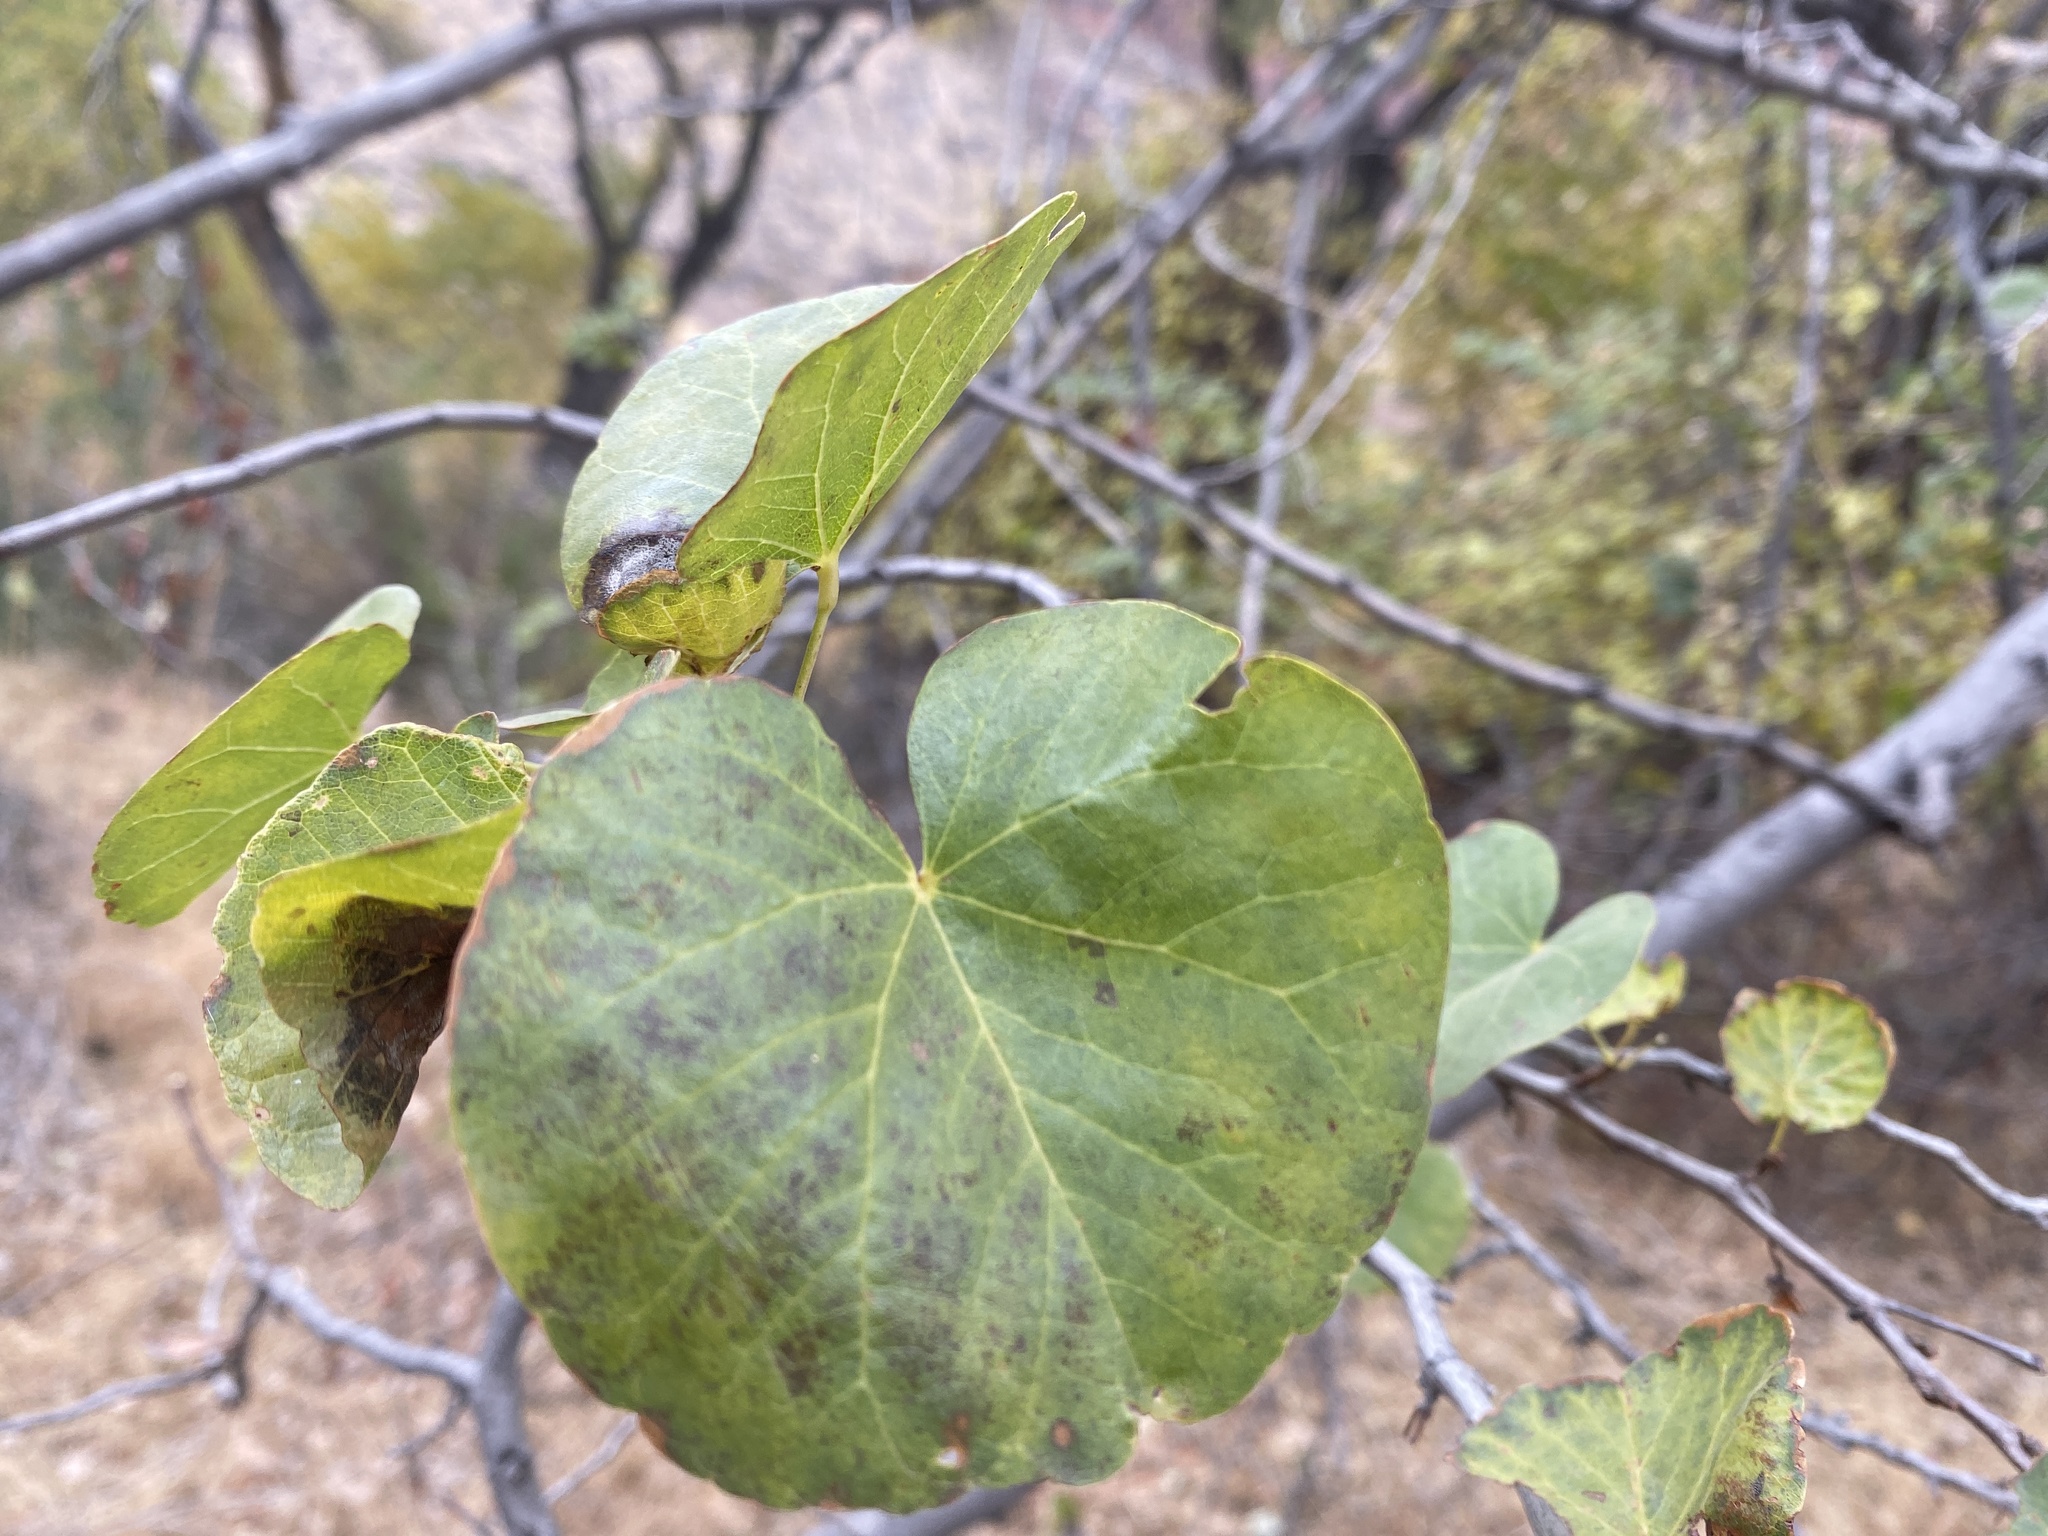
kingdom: Plantae
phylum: Tracheophyta
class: Magnoliopsida
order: Fabales
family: Fabaceae
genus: Cercis
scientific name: Cercis occidentalis
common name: California redbud
